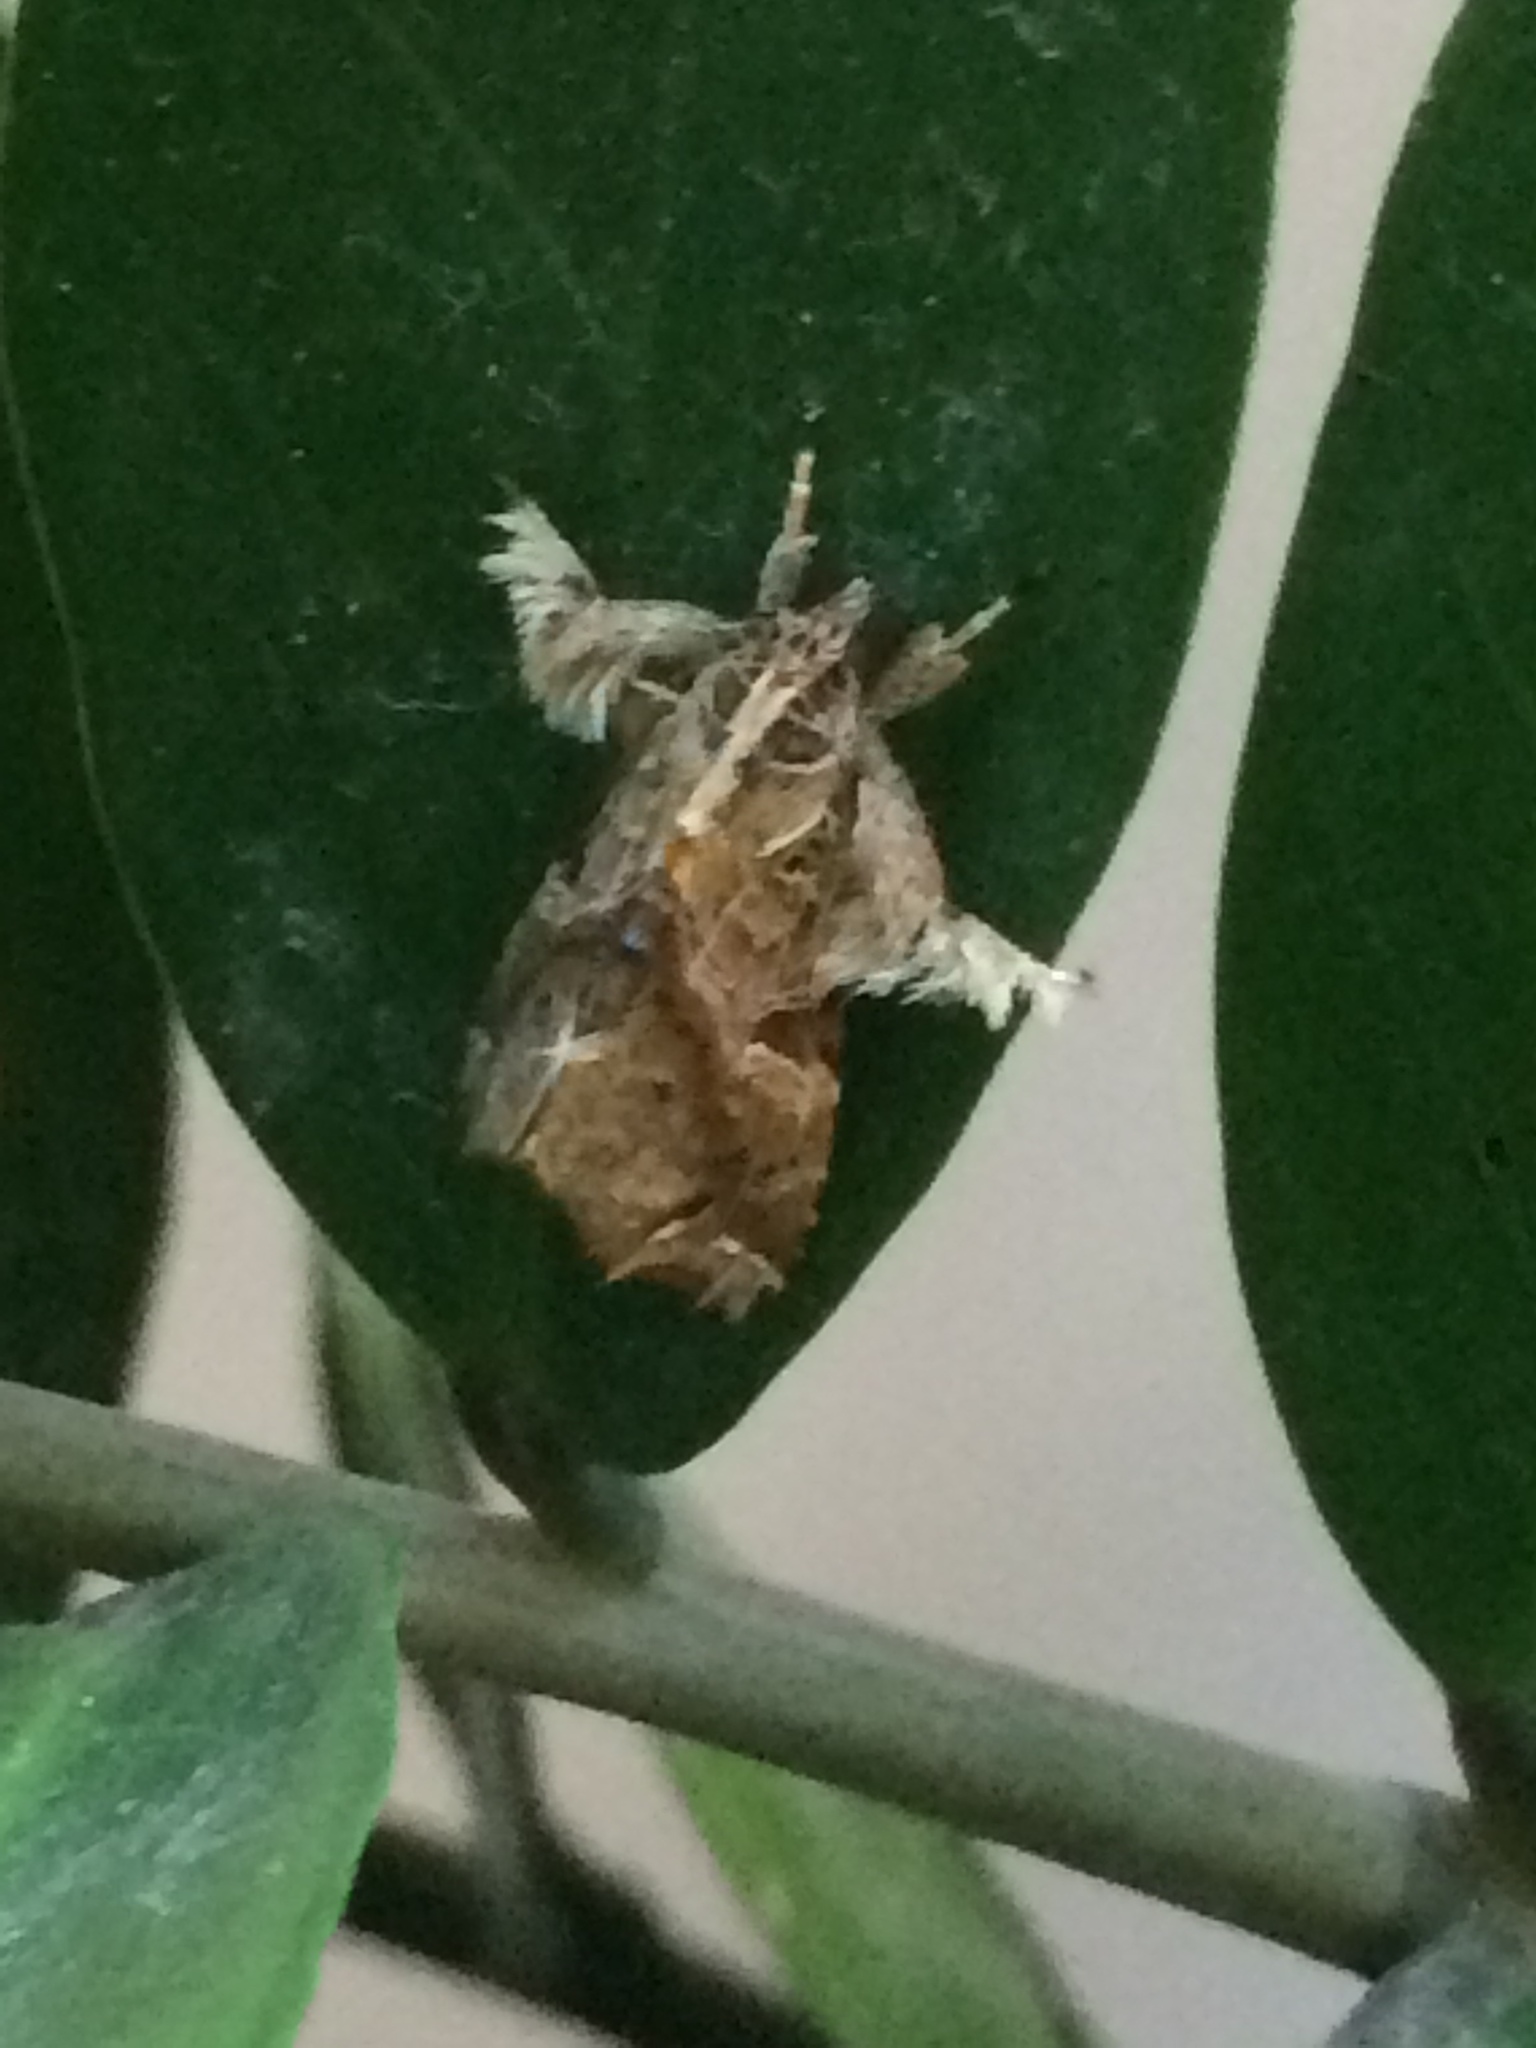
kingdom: Animalia
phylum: Arthropoda
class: Insecta
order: Lepidoptera
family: Noctuidae
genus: Callopistria
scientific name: Callopistria floridensis
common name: Florida fern moth
